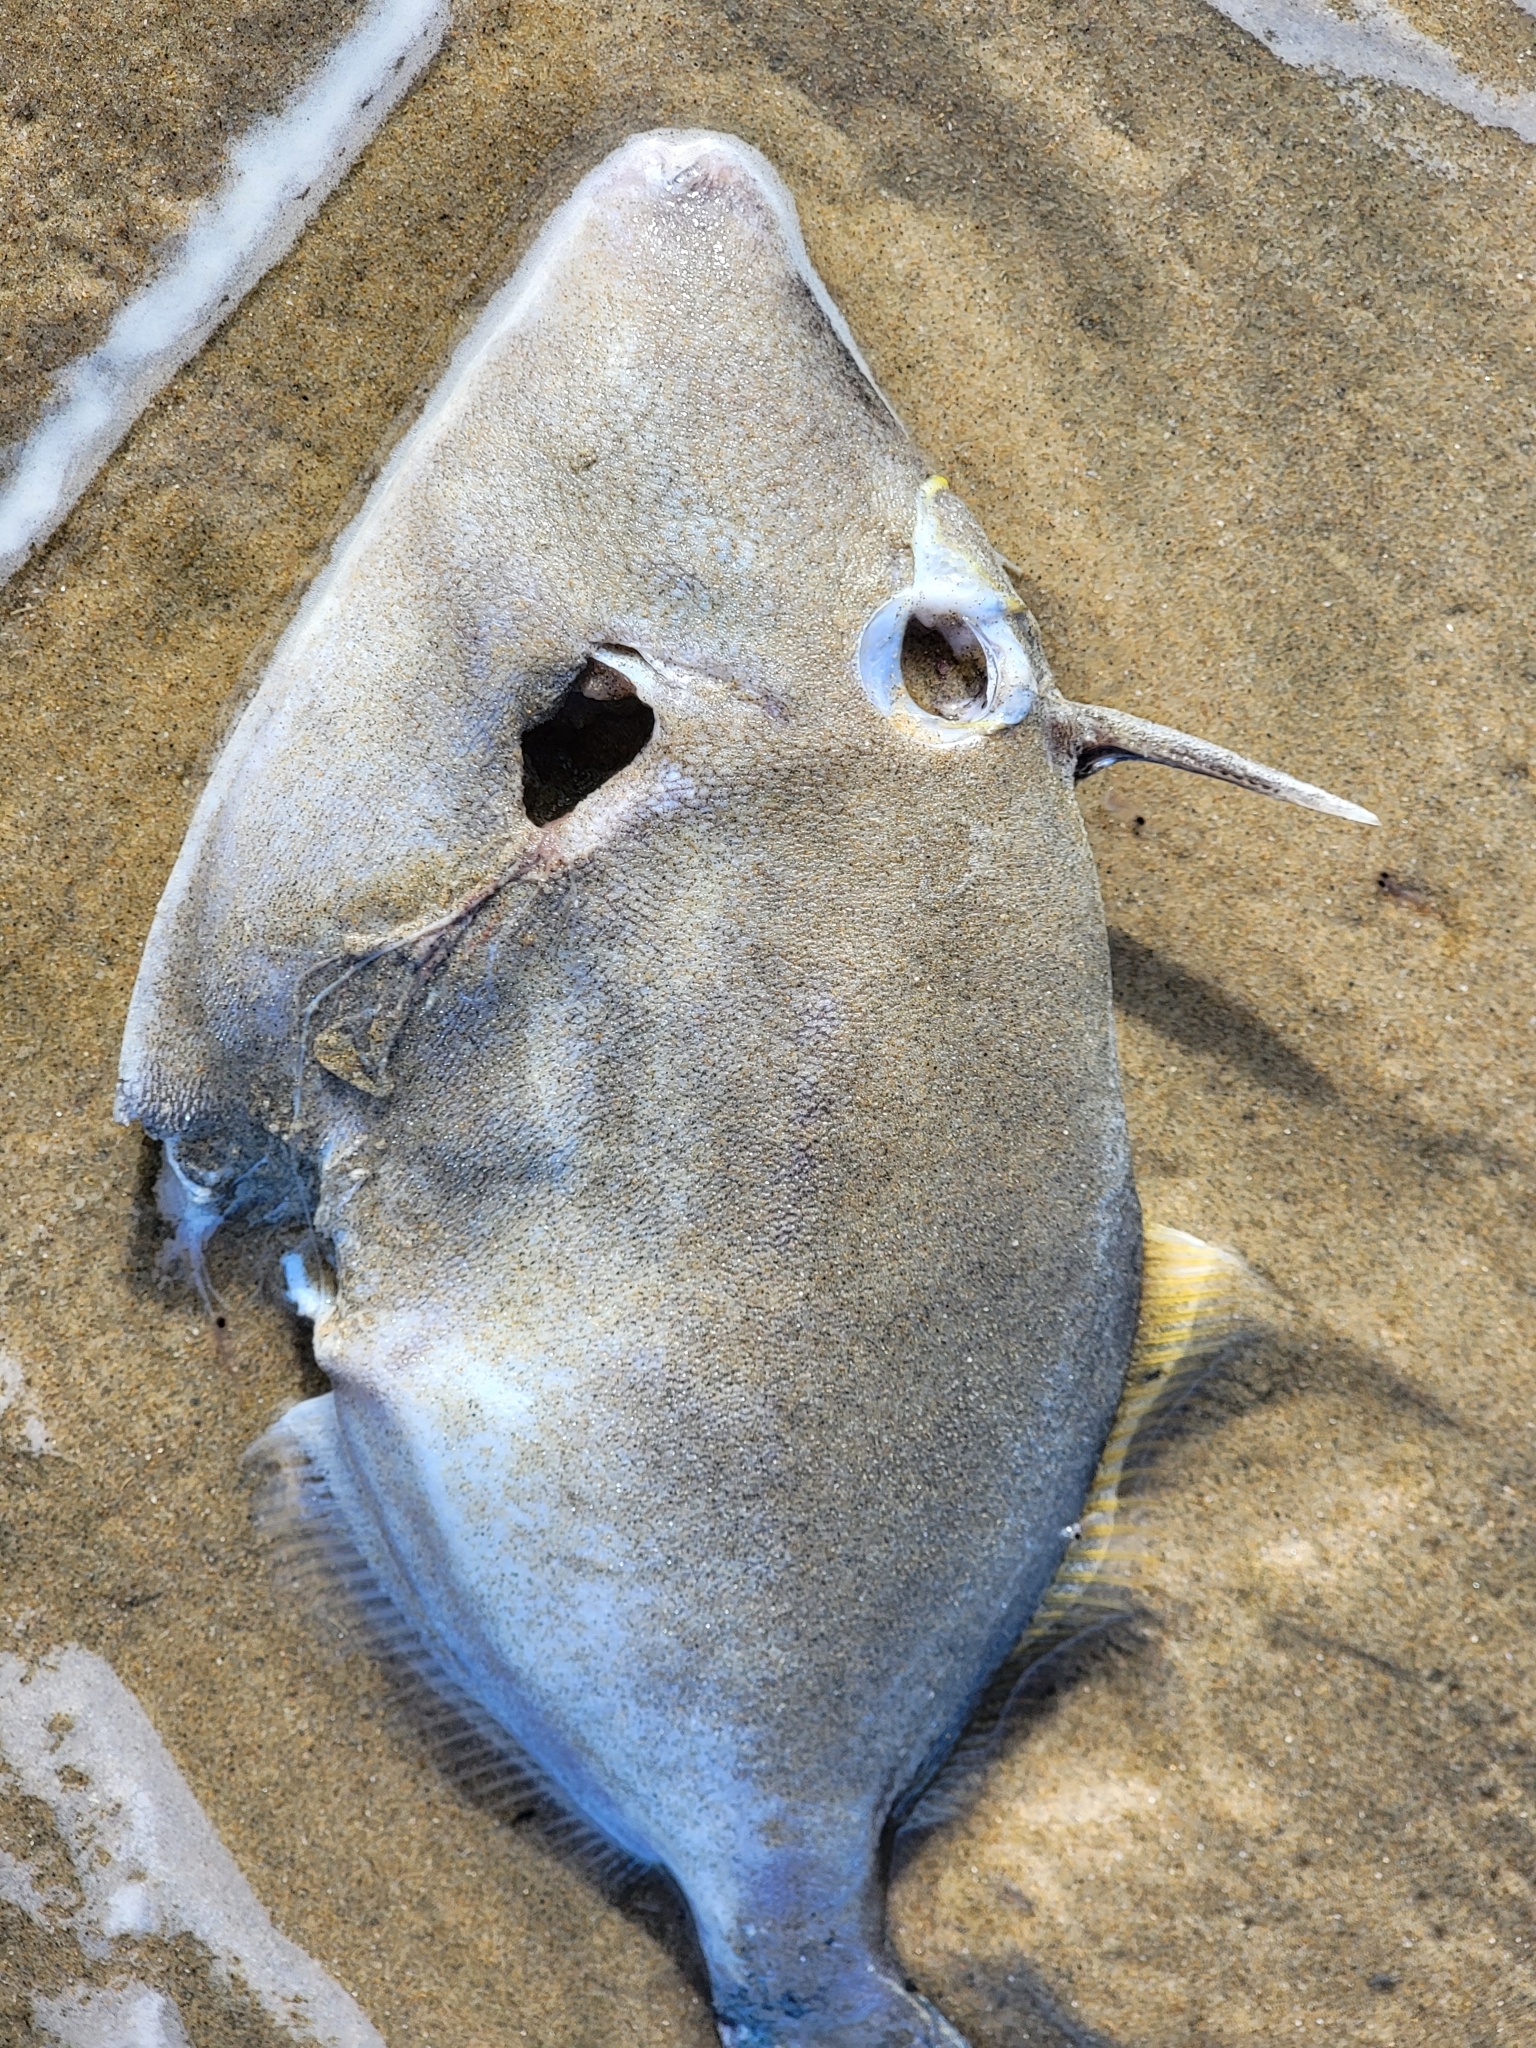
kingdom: Animalia
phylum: Chordata
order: Tetraodontiformes
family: Monacanthidae
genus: Meuschenia
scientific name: Meuschenia scaber
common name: Cosmopolitan leatherjacket
